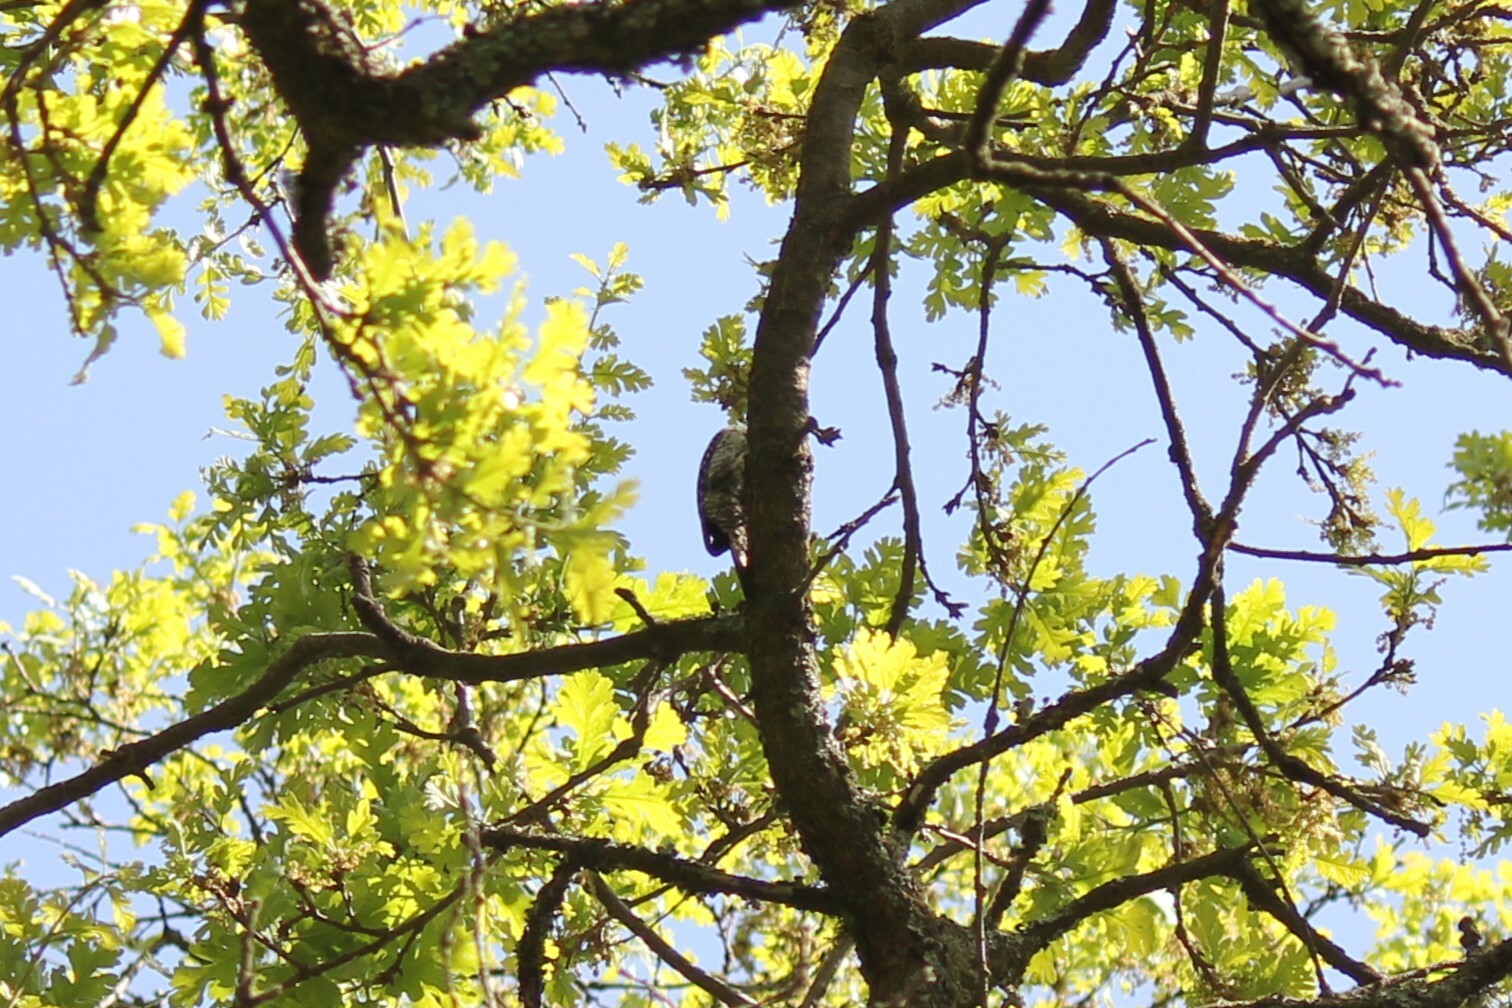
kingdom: Animalia
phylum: Chordata
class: Aves
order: Piciformes
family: Picidae
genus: Dryobates
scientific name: Dryobates nuttallii
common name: Nuttall's woodpecker
